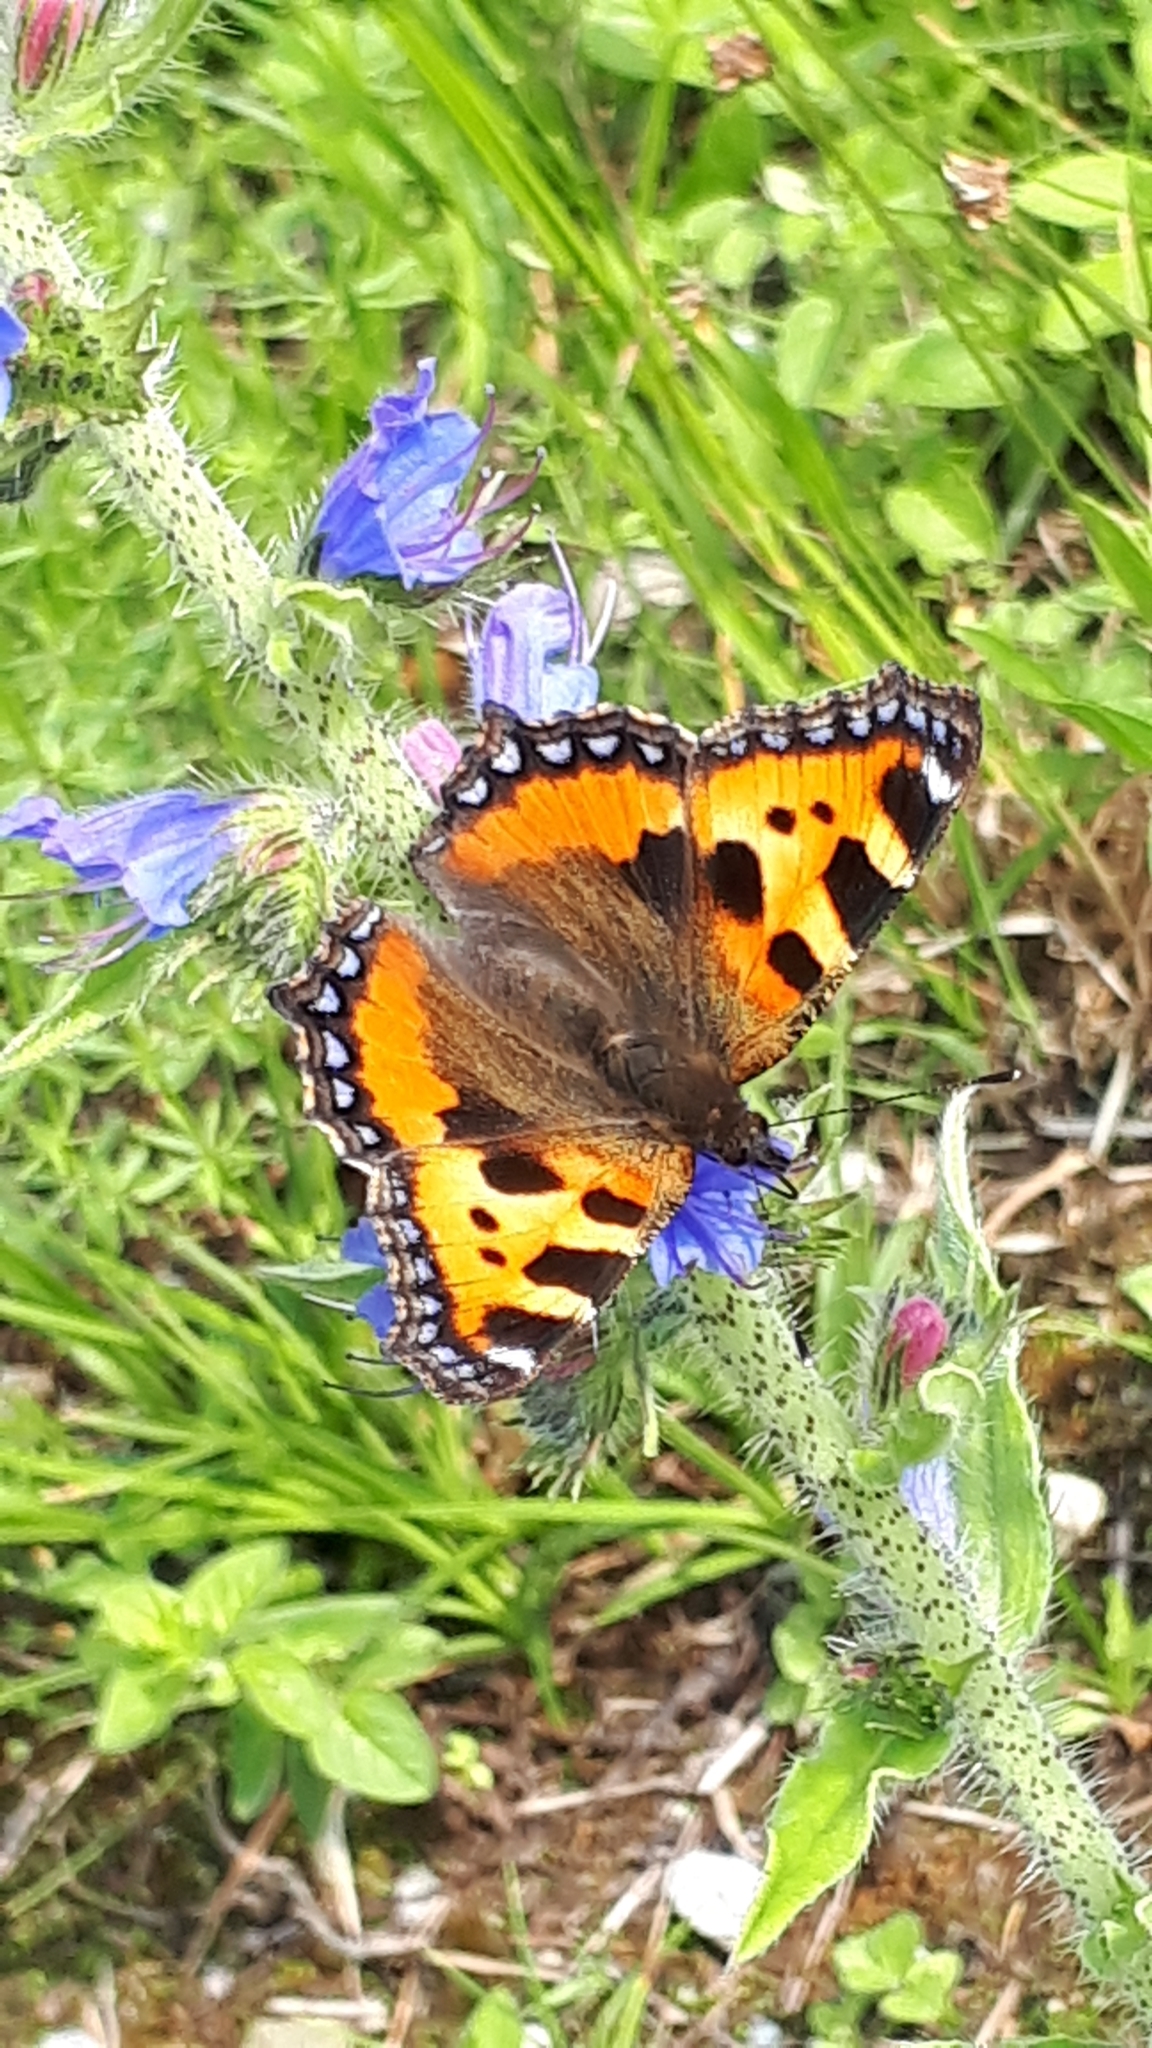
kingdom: Animalia
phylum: Arthropoda
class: Insecta
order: Lepidoptera
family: Nymphalidae
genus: Aglais
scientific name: Aglais urticae
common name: Small tortoiseshell
